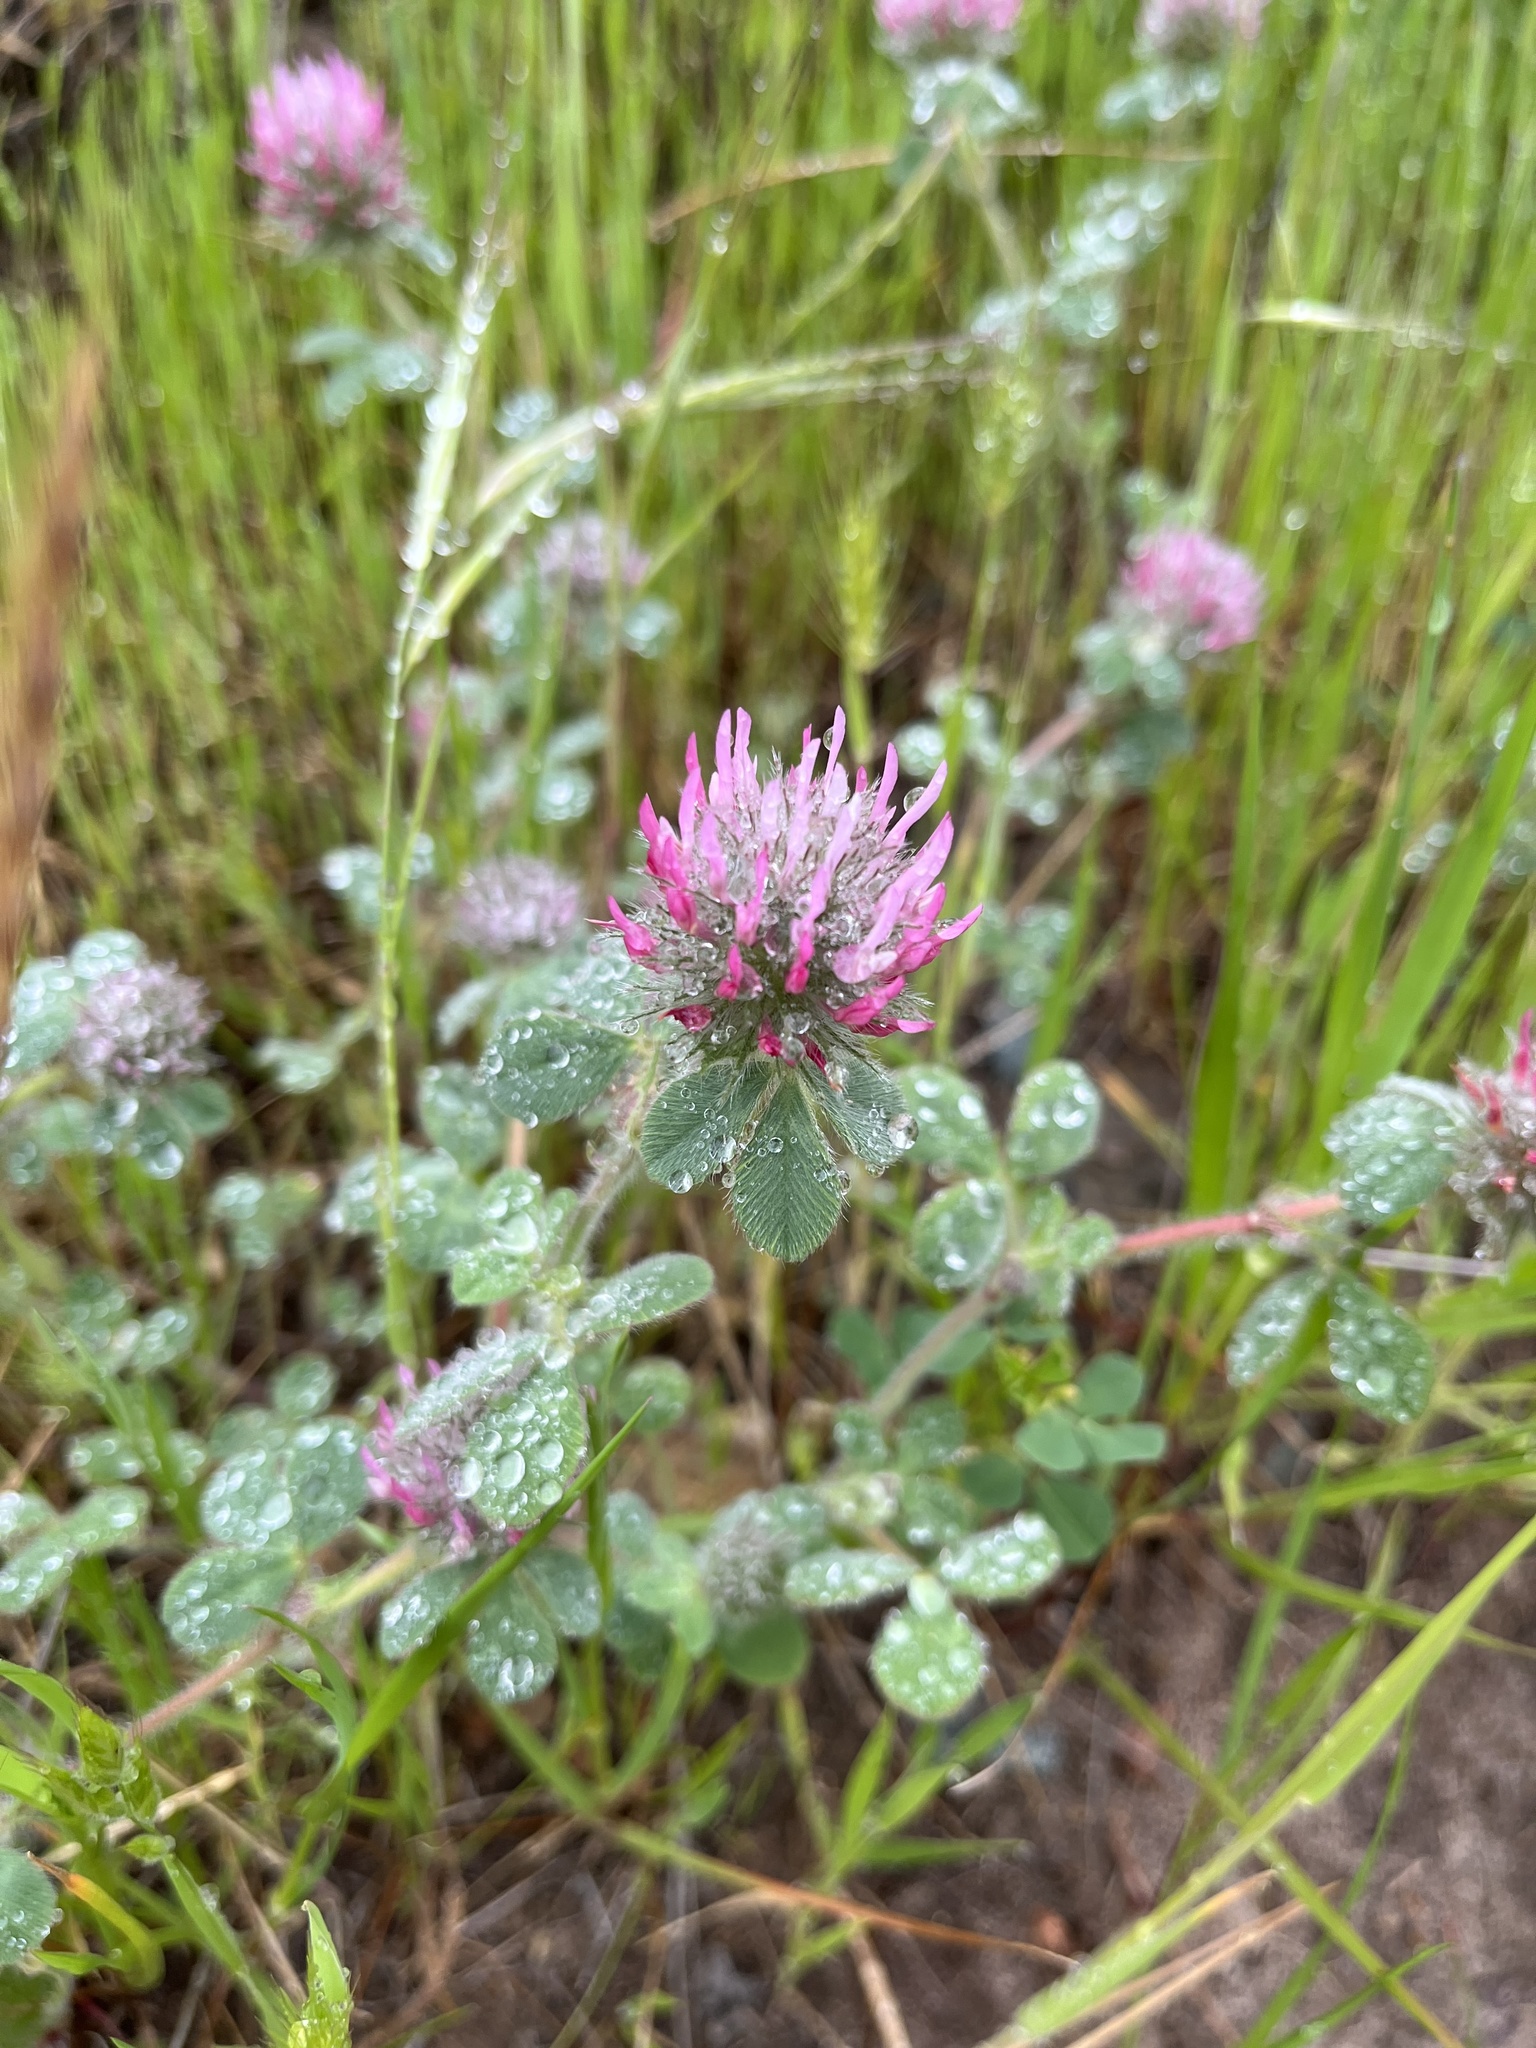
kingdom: Plantae
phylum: Tracheophyta
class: Magnoliopsida
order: Fabales
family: Fabaceae
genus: Trifolium
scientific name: Trifolium hirtum
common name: Rose clover
